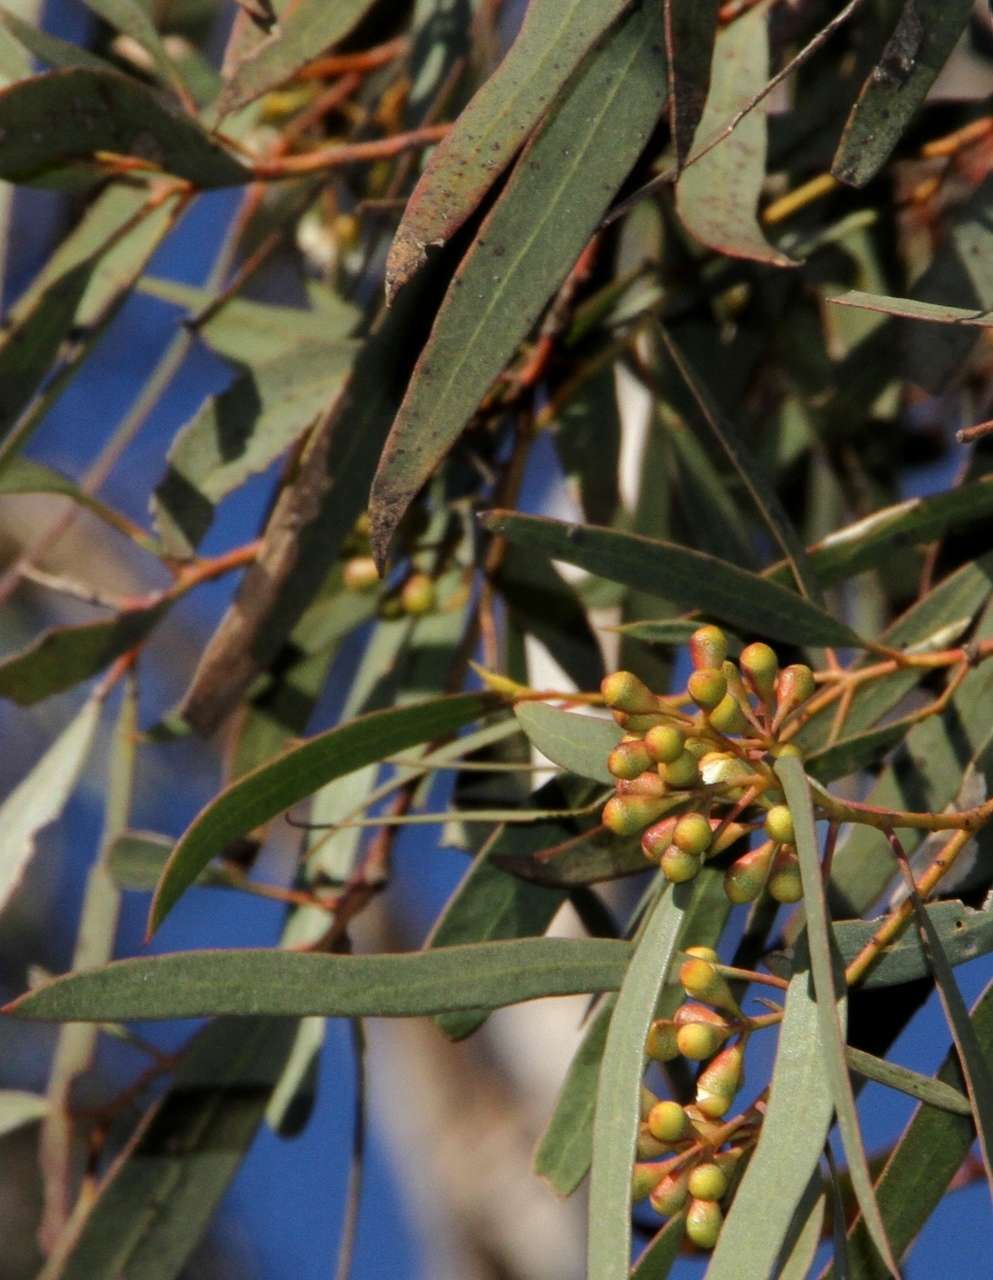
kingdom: Plantae
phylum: Tracheophyta
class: Magnoliopsida
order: Myrtales
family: Myrtaceae
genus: Eucalyptus
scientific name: Eucalyptus gracilis
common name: White mallee
